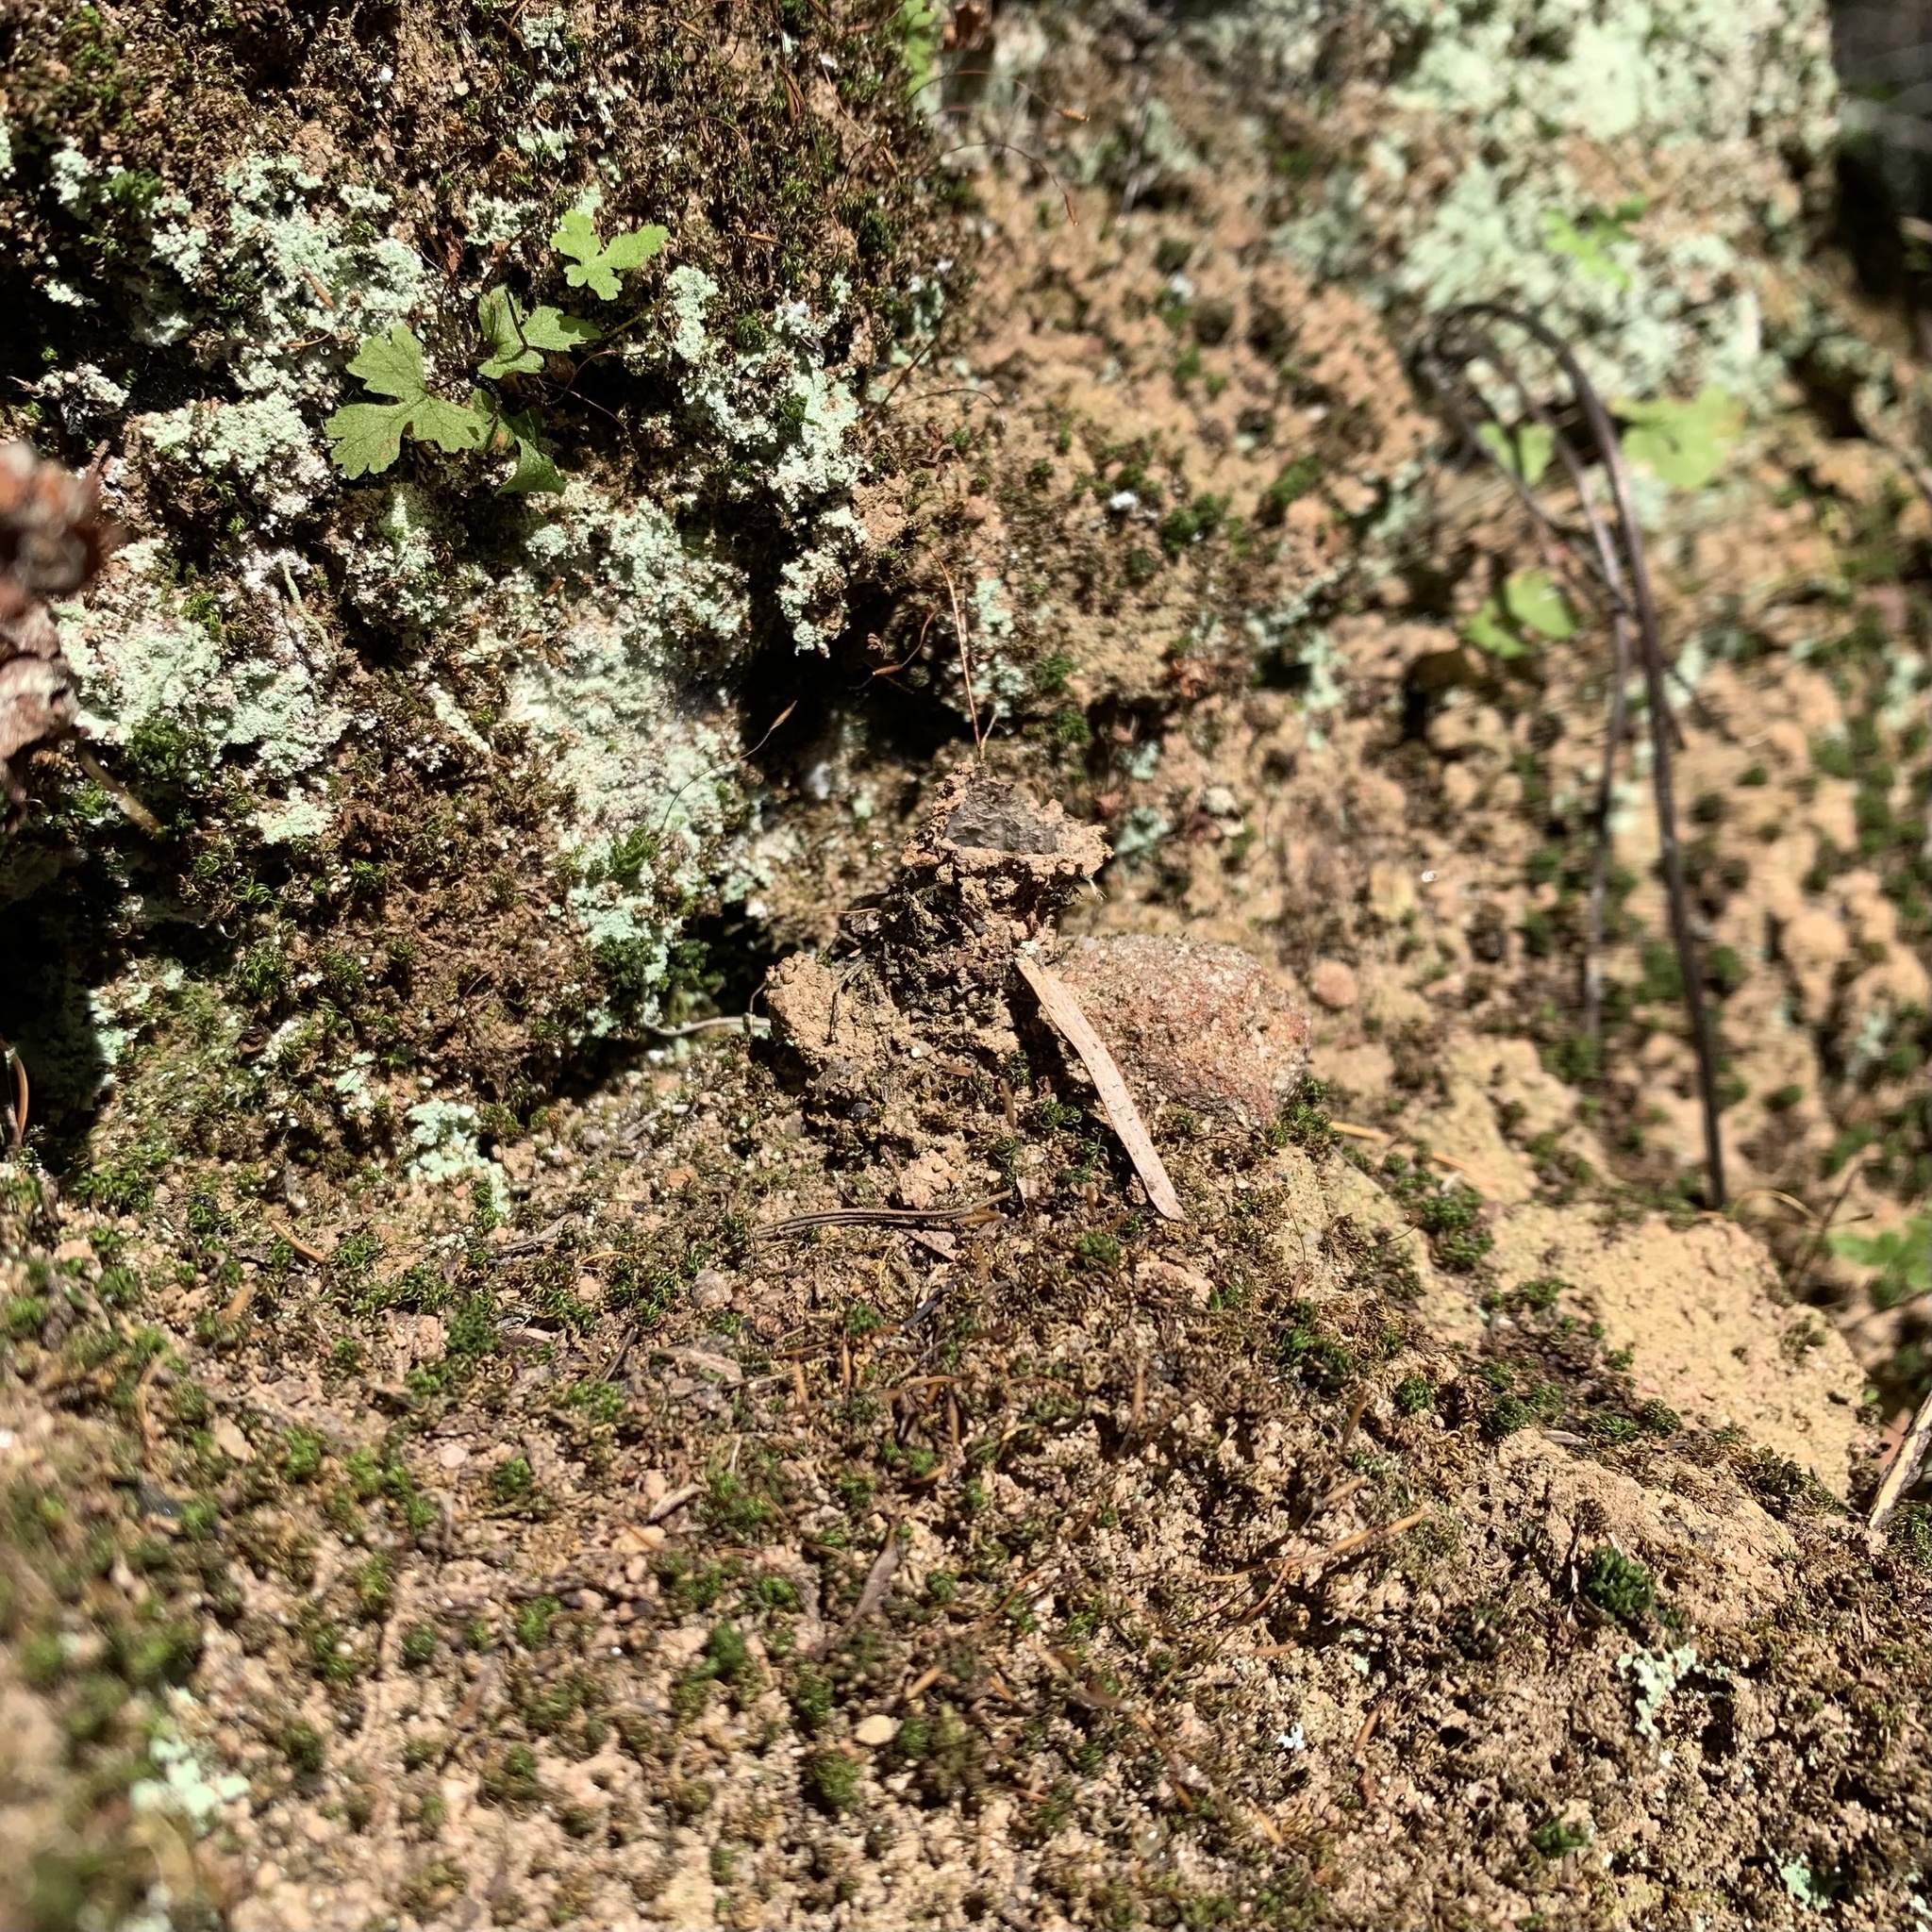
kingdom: Animalia
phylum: Arthropoda
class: Arachnida
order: Araneae
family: Antrodiaetidae
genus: Atypoides
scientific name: Atypoides riversi
